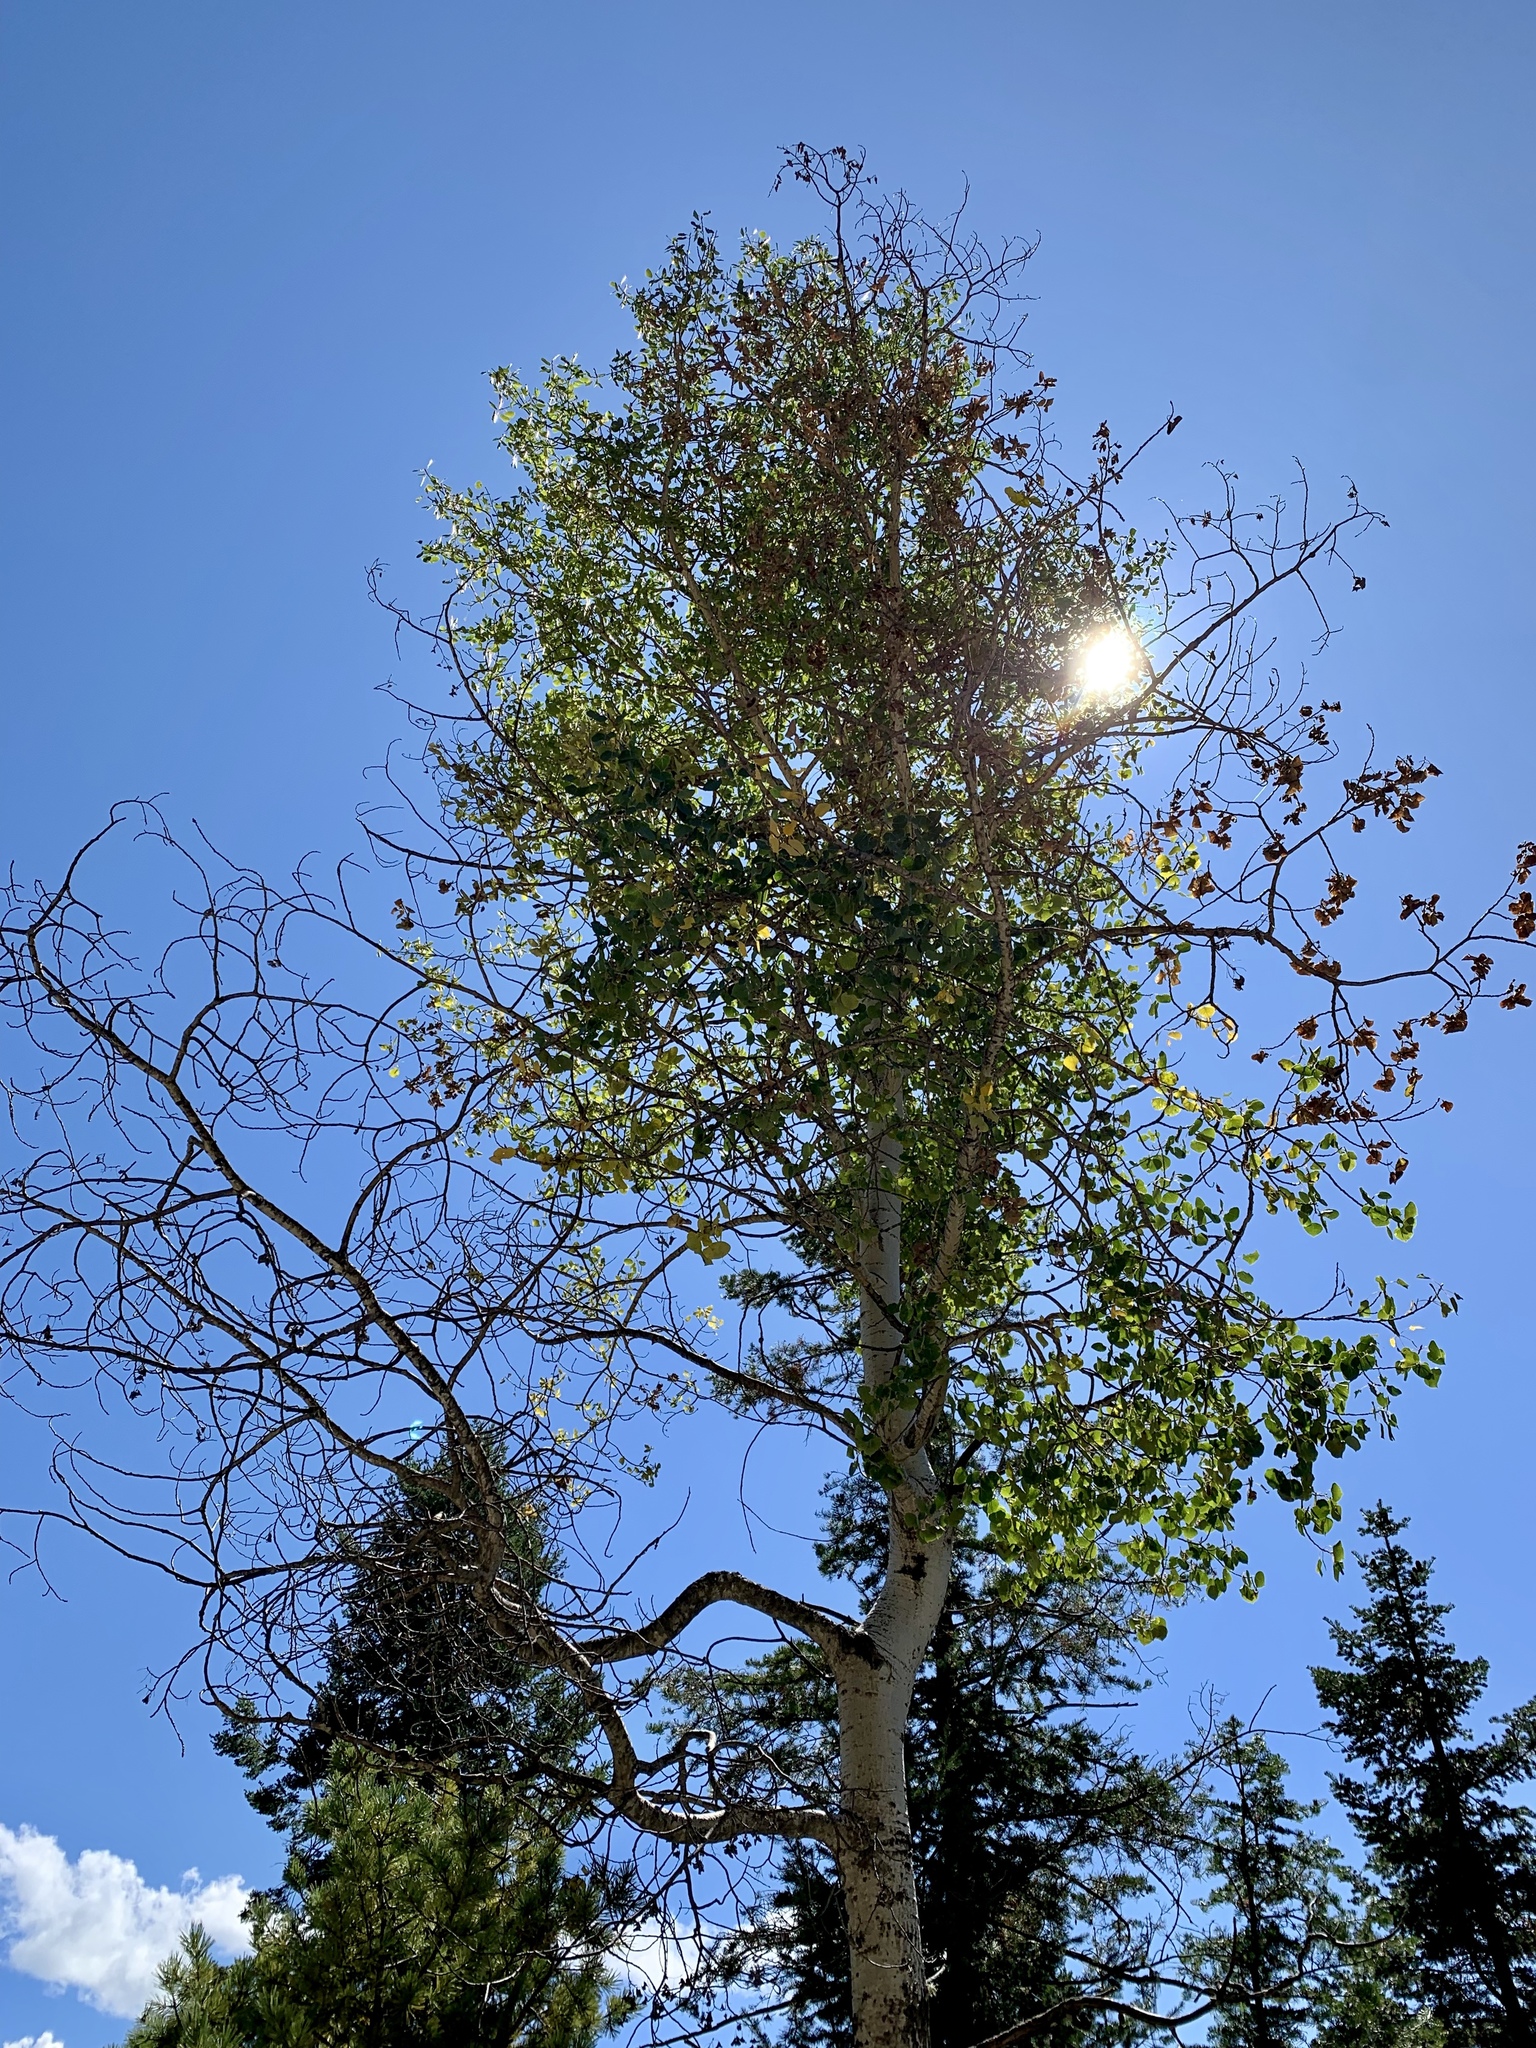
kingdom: Plantae
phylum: Tracheophyta
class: Magnoliopsida
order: Malpighiales
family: Salicaceae
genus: Populus
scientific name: Populus tremuloides
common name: Quaking aspen
